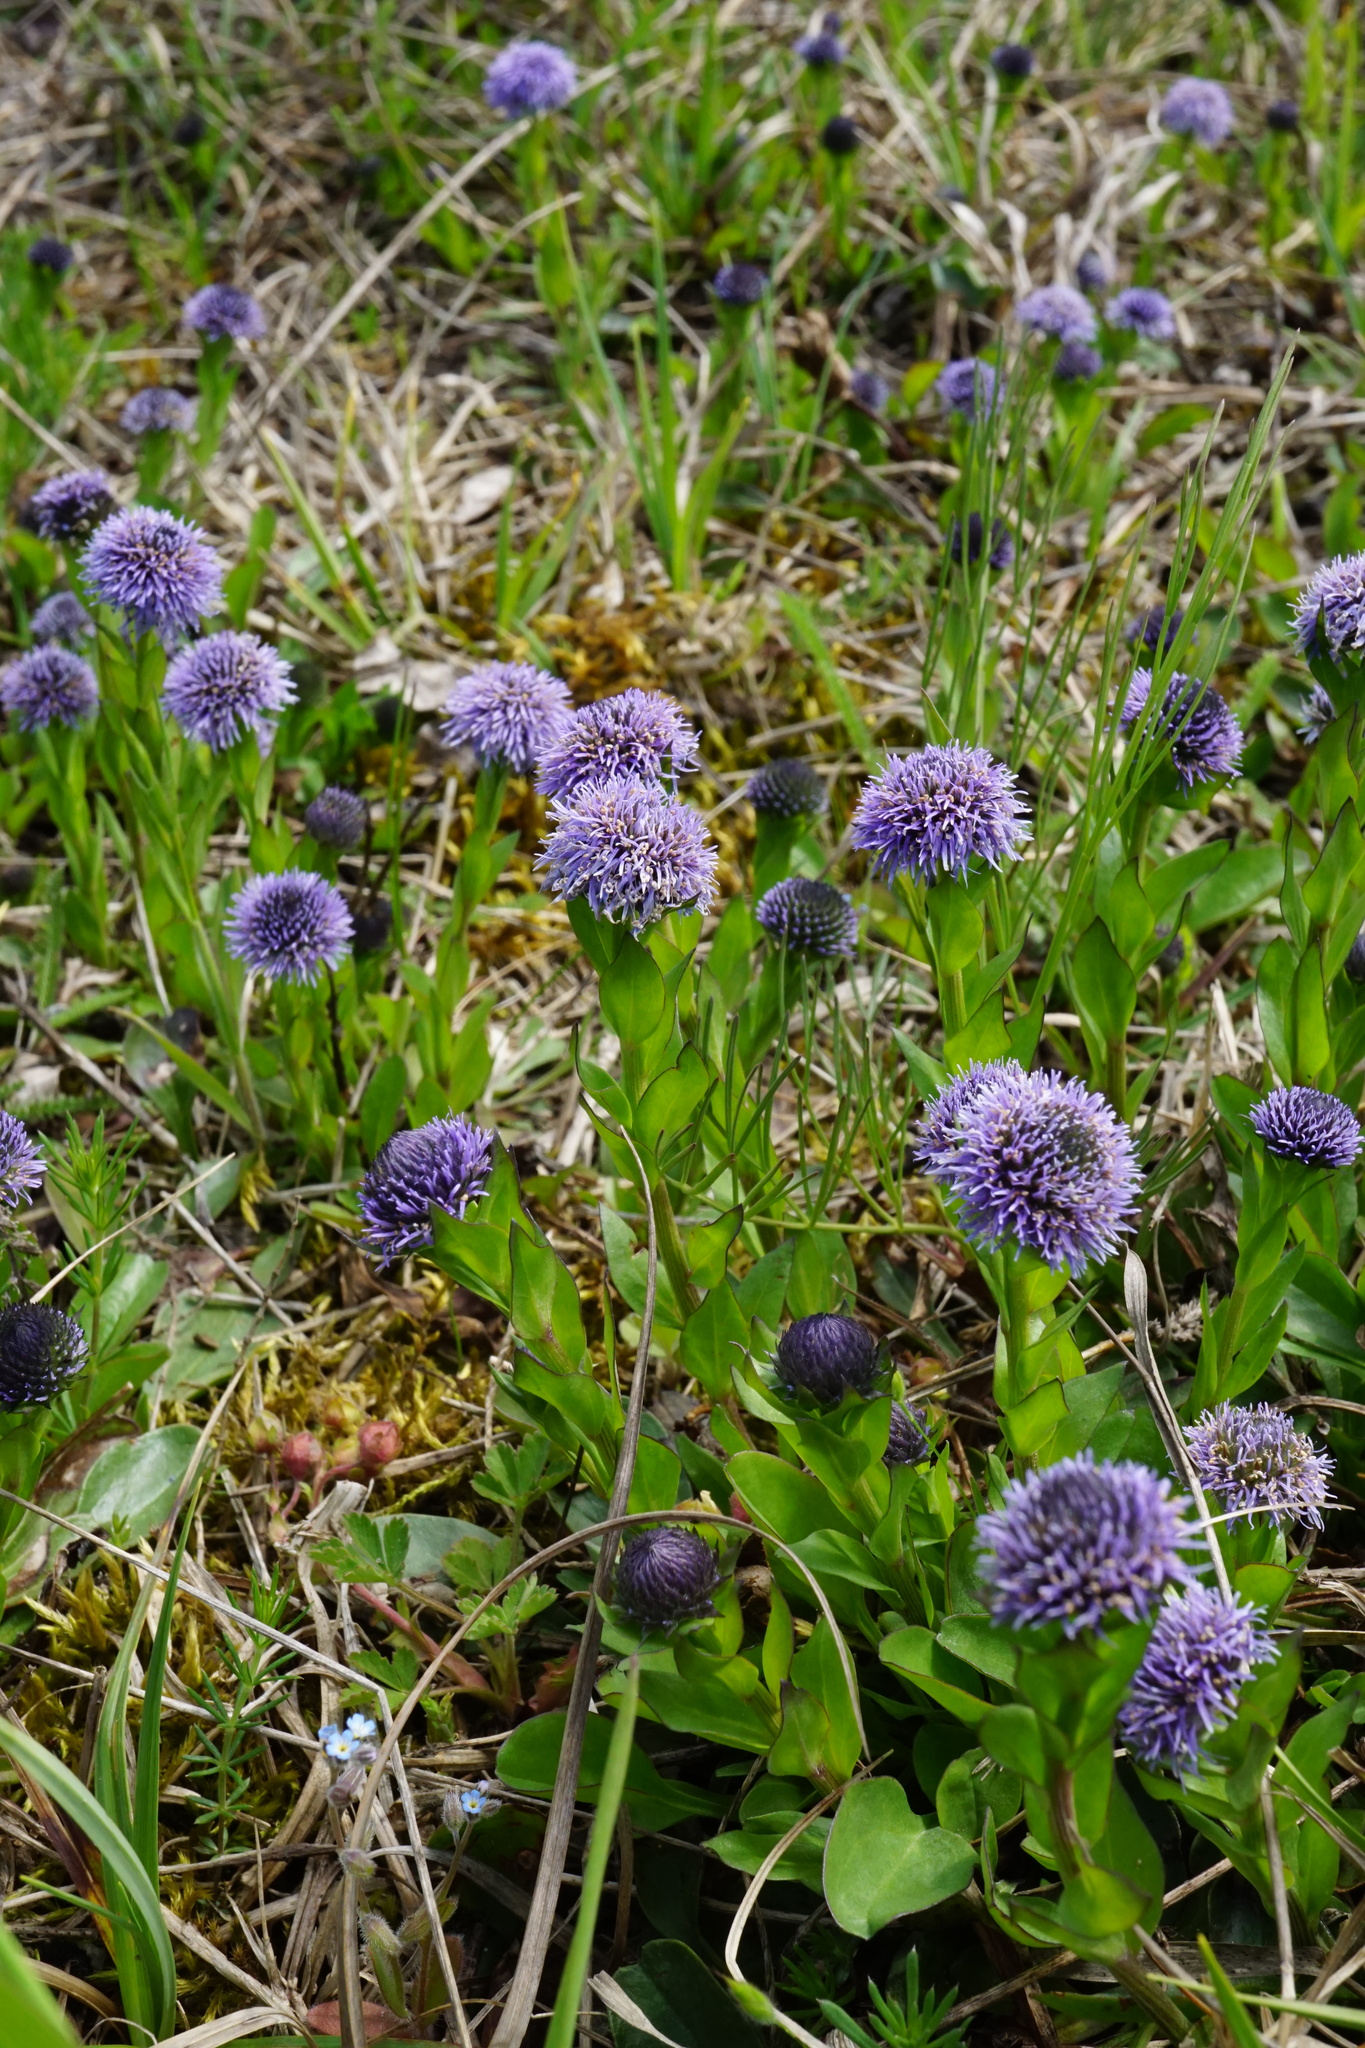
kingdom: Plantae
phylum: Tracheophyta
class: Magnoliopsida
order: Lamiales
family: Plantaginaceae
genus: Globularia
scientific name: Globularia bisnagarica
